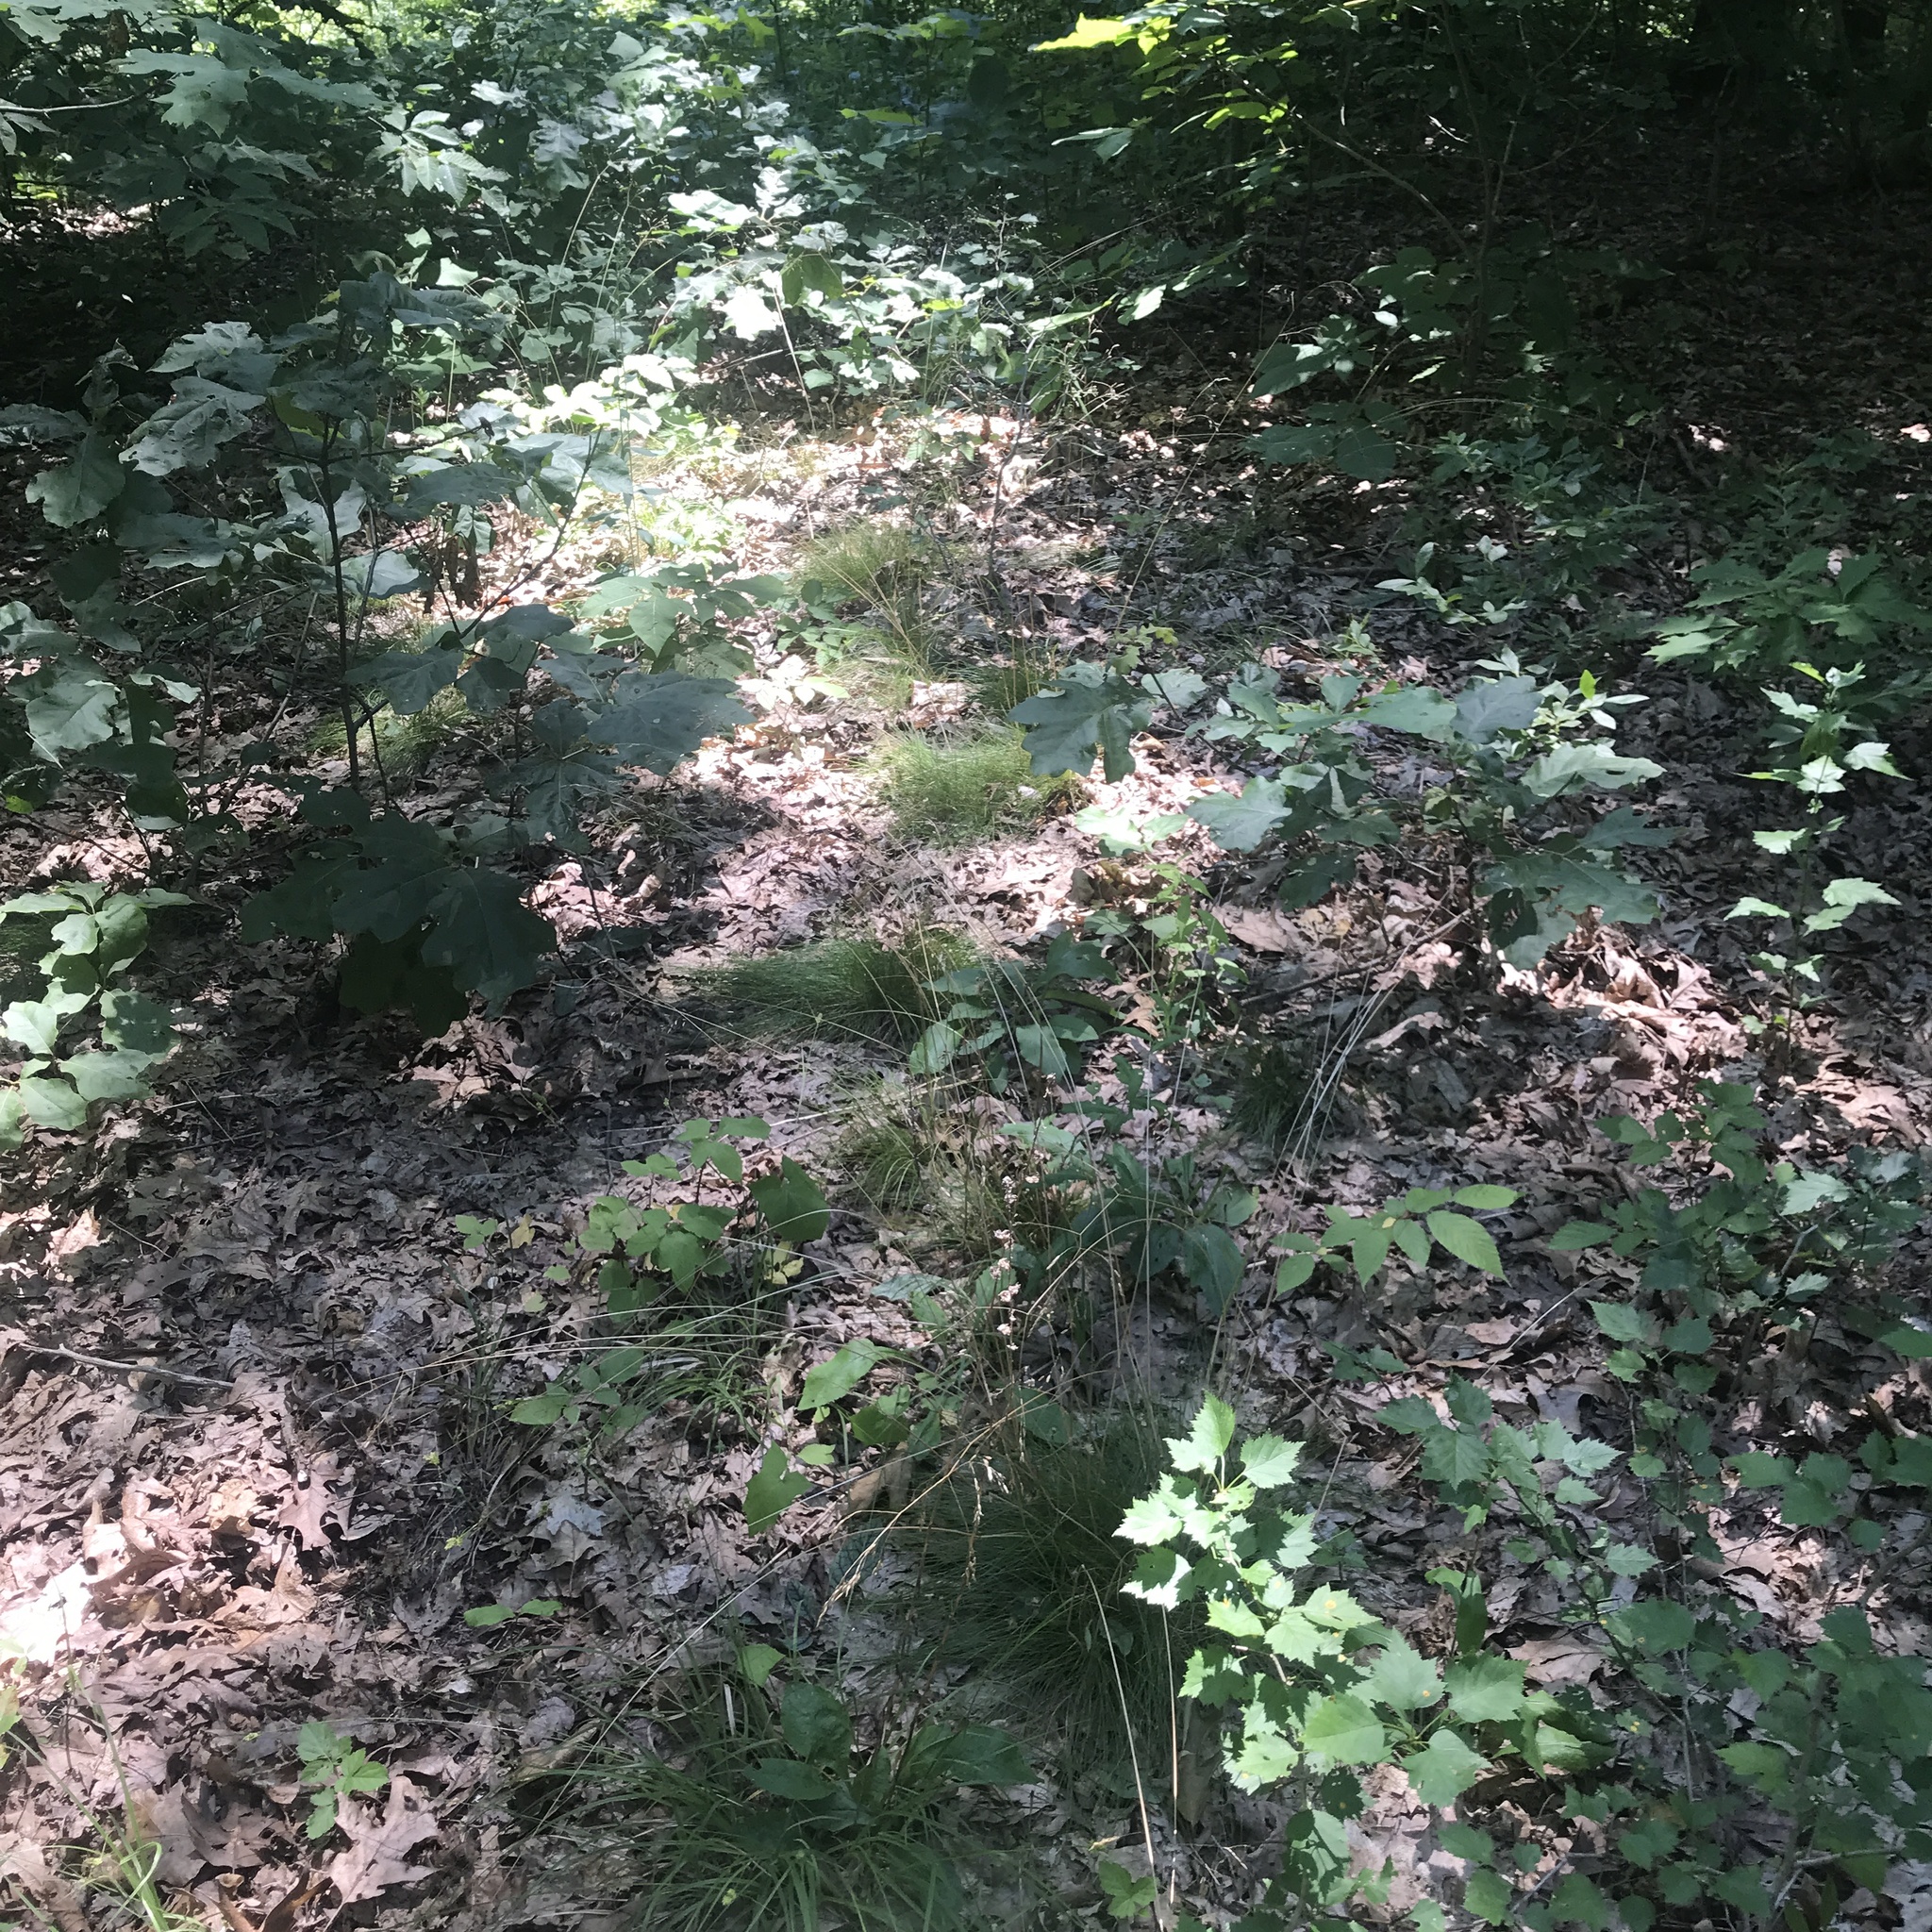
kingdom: Plantae
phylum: Tracheophyta
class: Liliopsida
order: Poales
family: Poaceae
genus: Avenella
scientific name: Avenella flexuosa
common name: Wavy hairgrass
